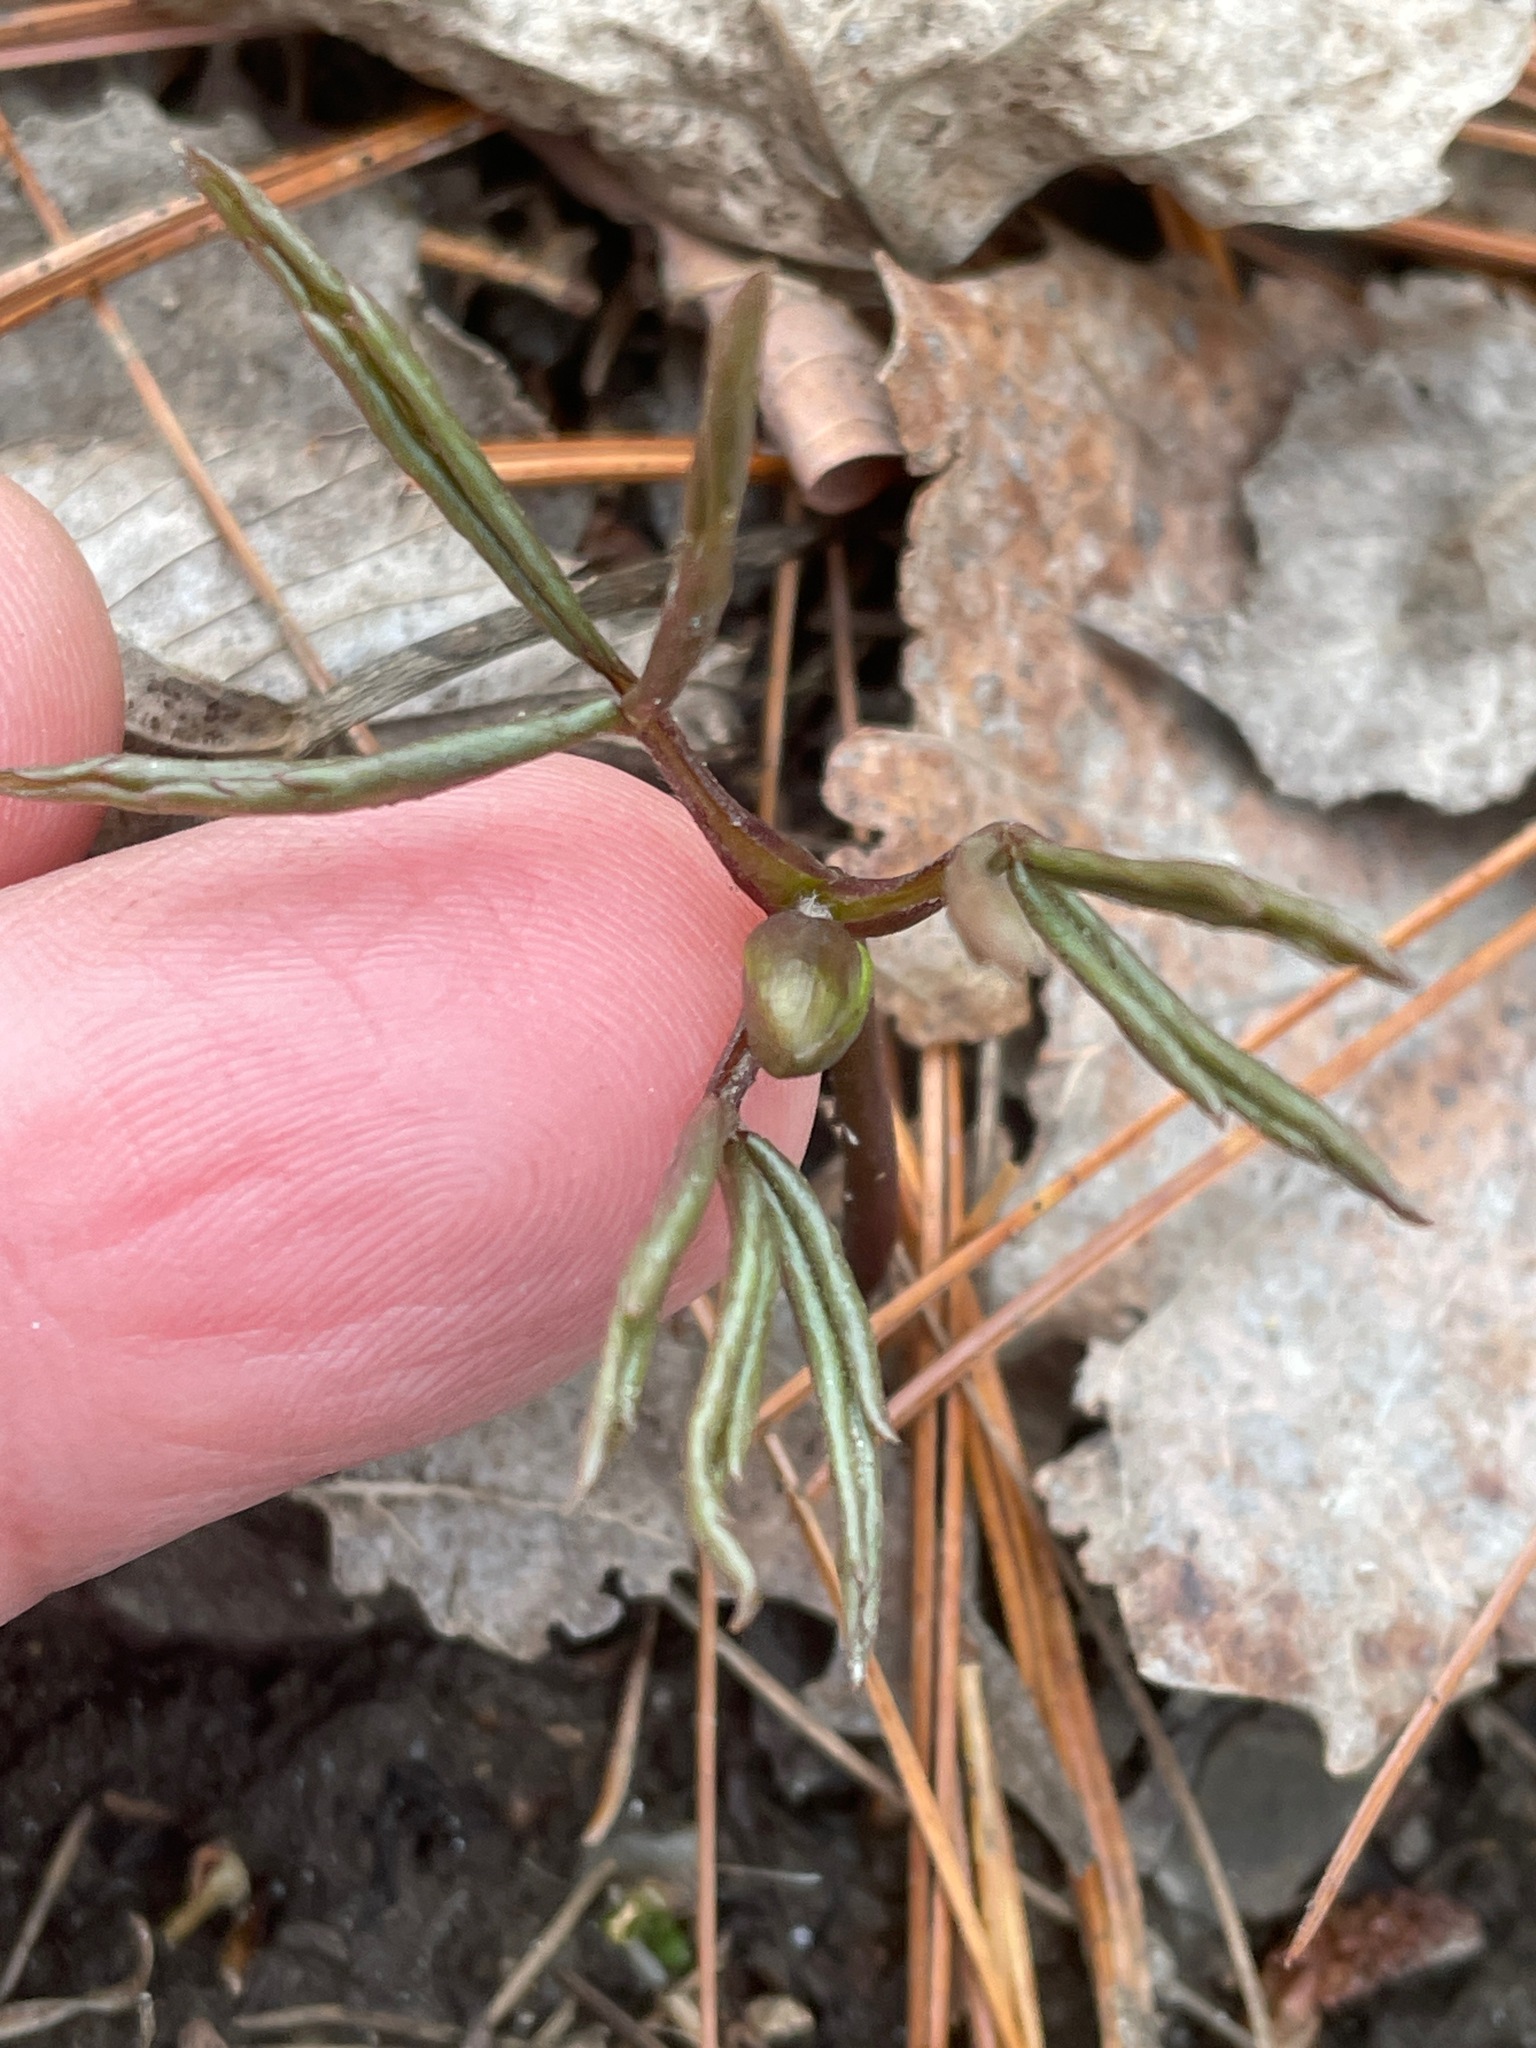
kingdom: Plantae
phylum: Tracheophyta
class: Magnoliopsida
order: Ranunculales
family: Ranunculaceae
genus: Anemone
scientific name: Anemone quinquefolia
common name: Wood anemone
